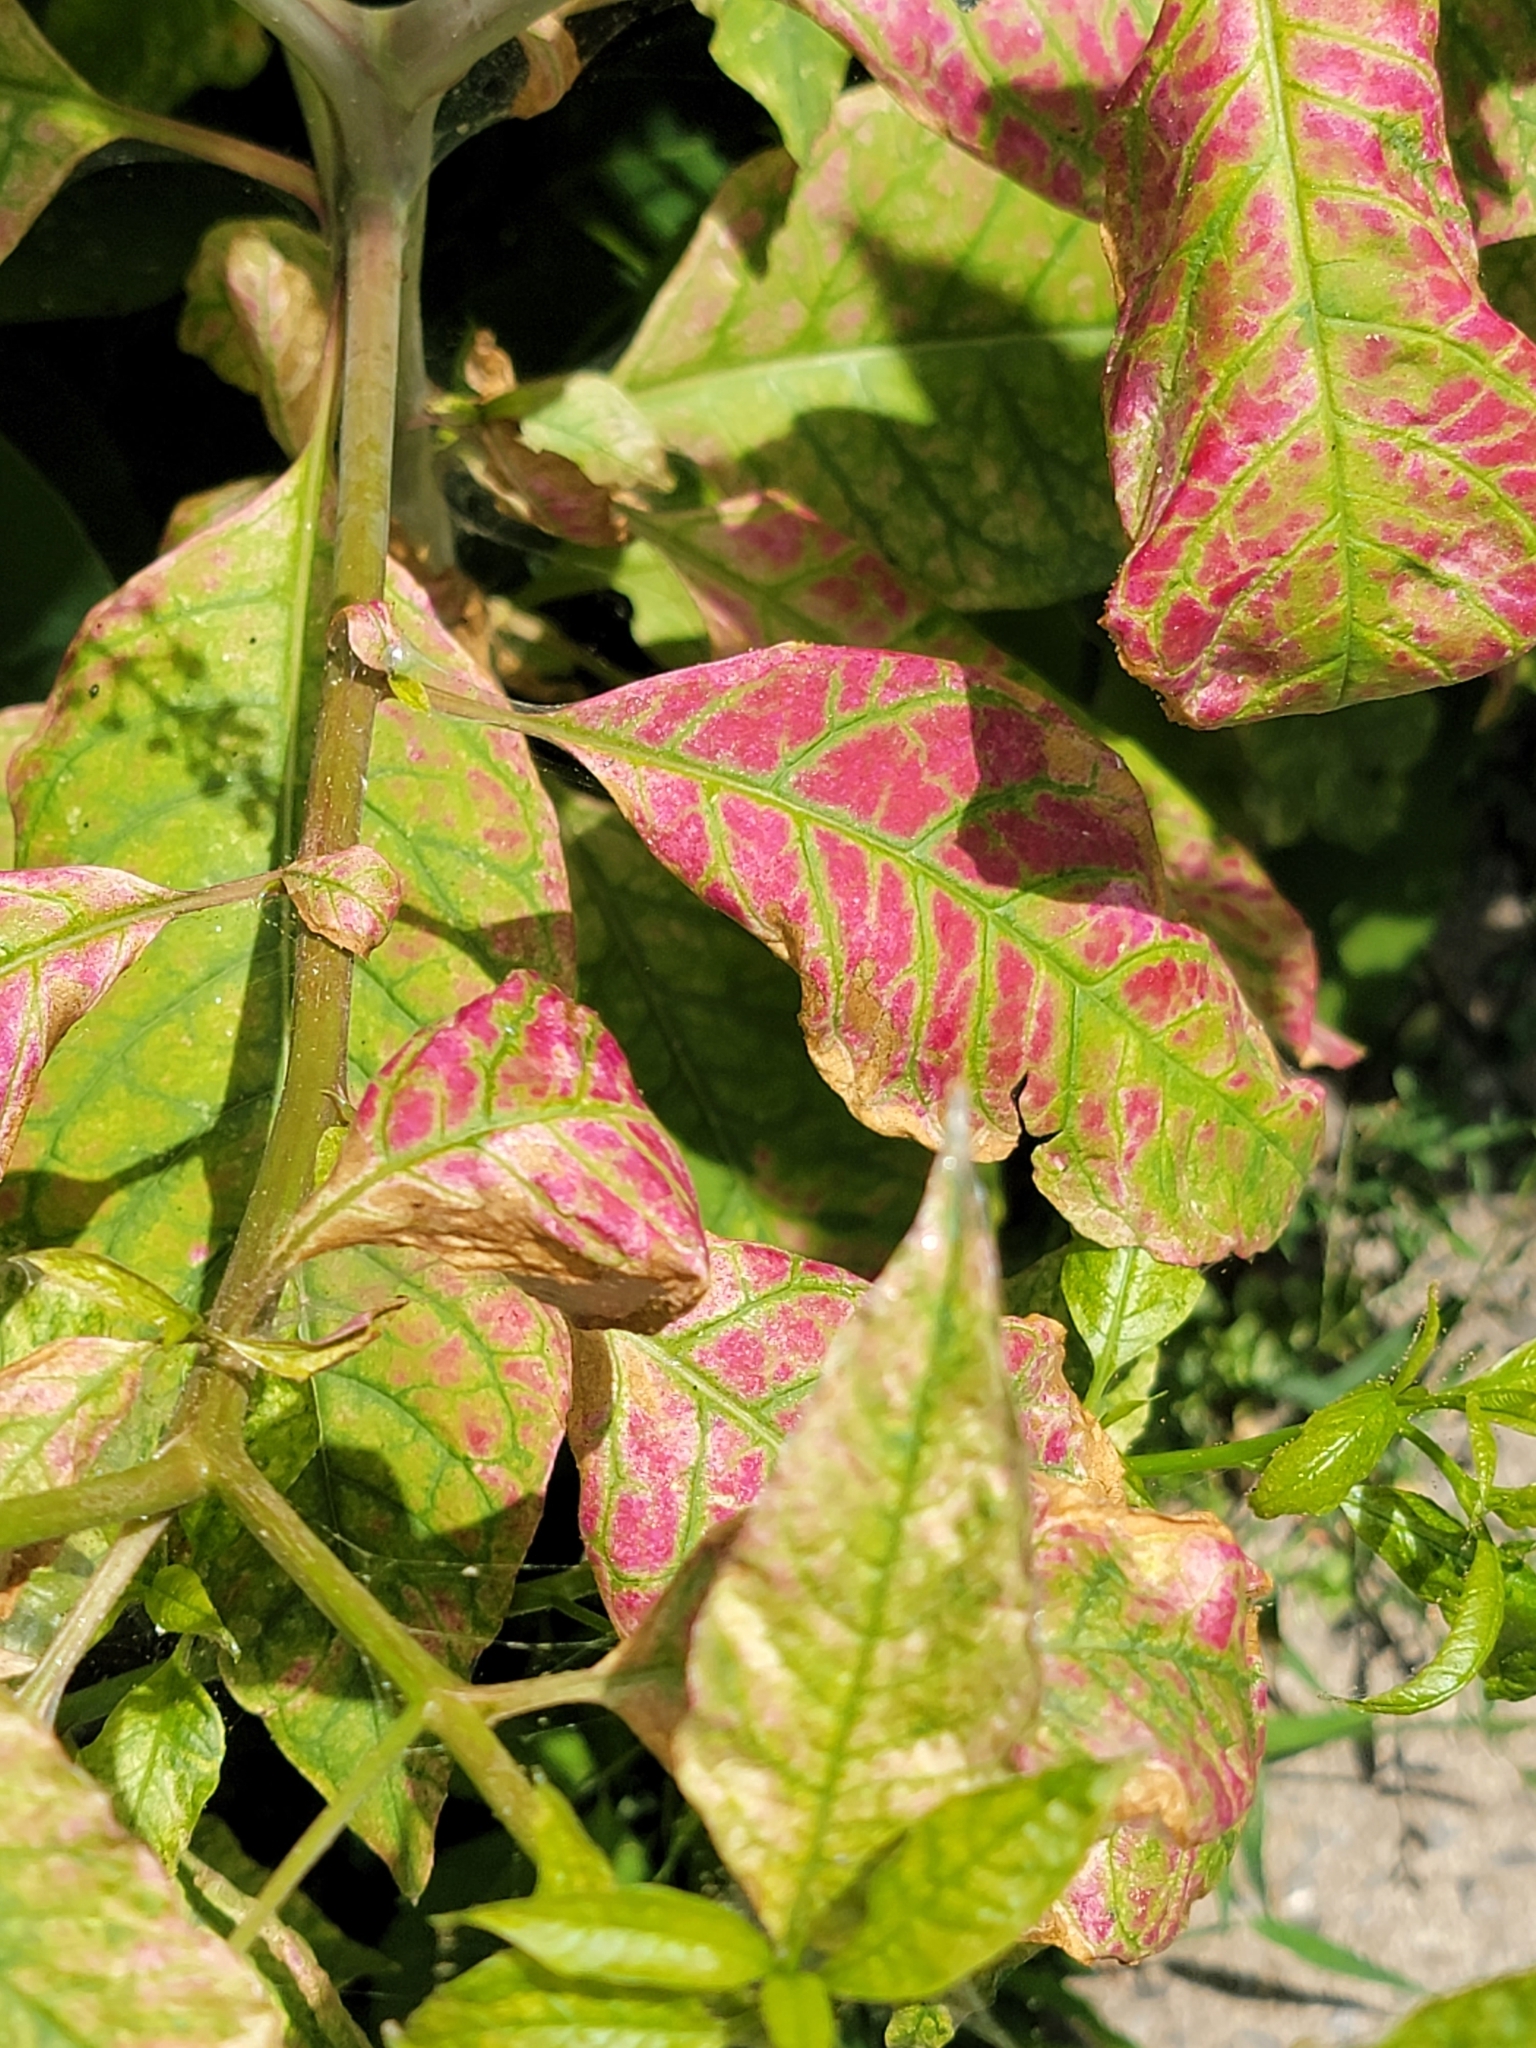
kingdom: Plantae
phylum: Tracheophyta
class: Magnoliopsida
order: Caryophyllales
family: Phytolaccaceae
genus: Phytolacca
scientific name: Phytolacca americana
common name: American pokeweed
